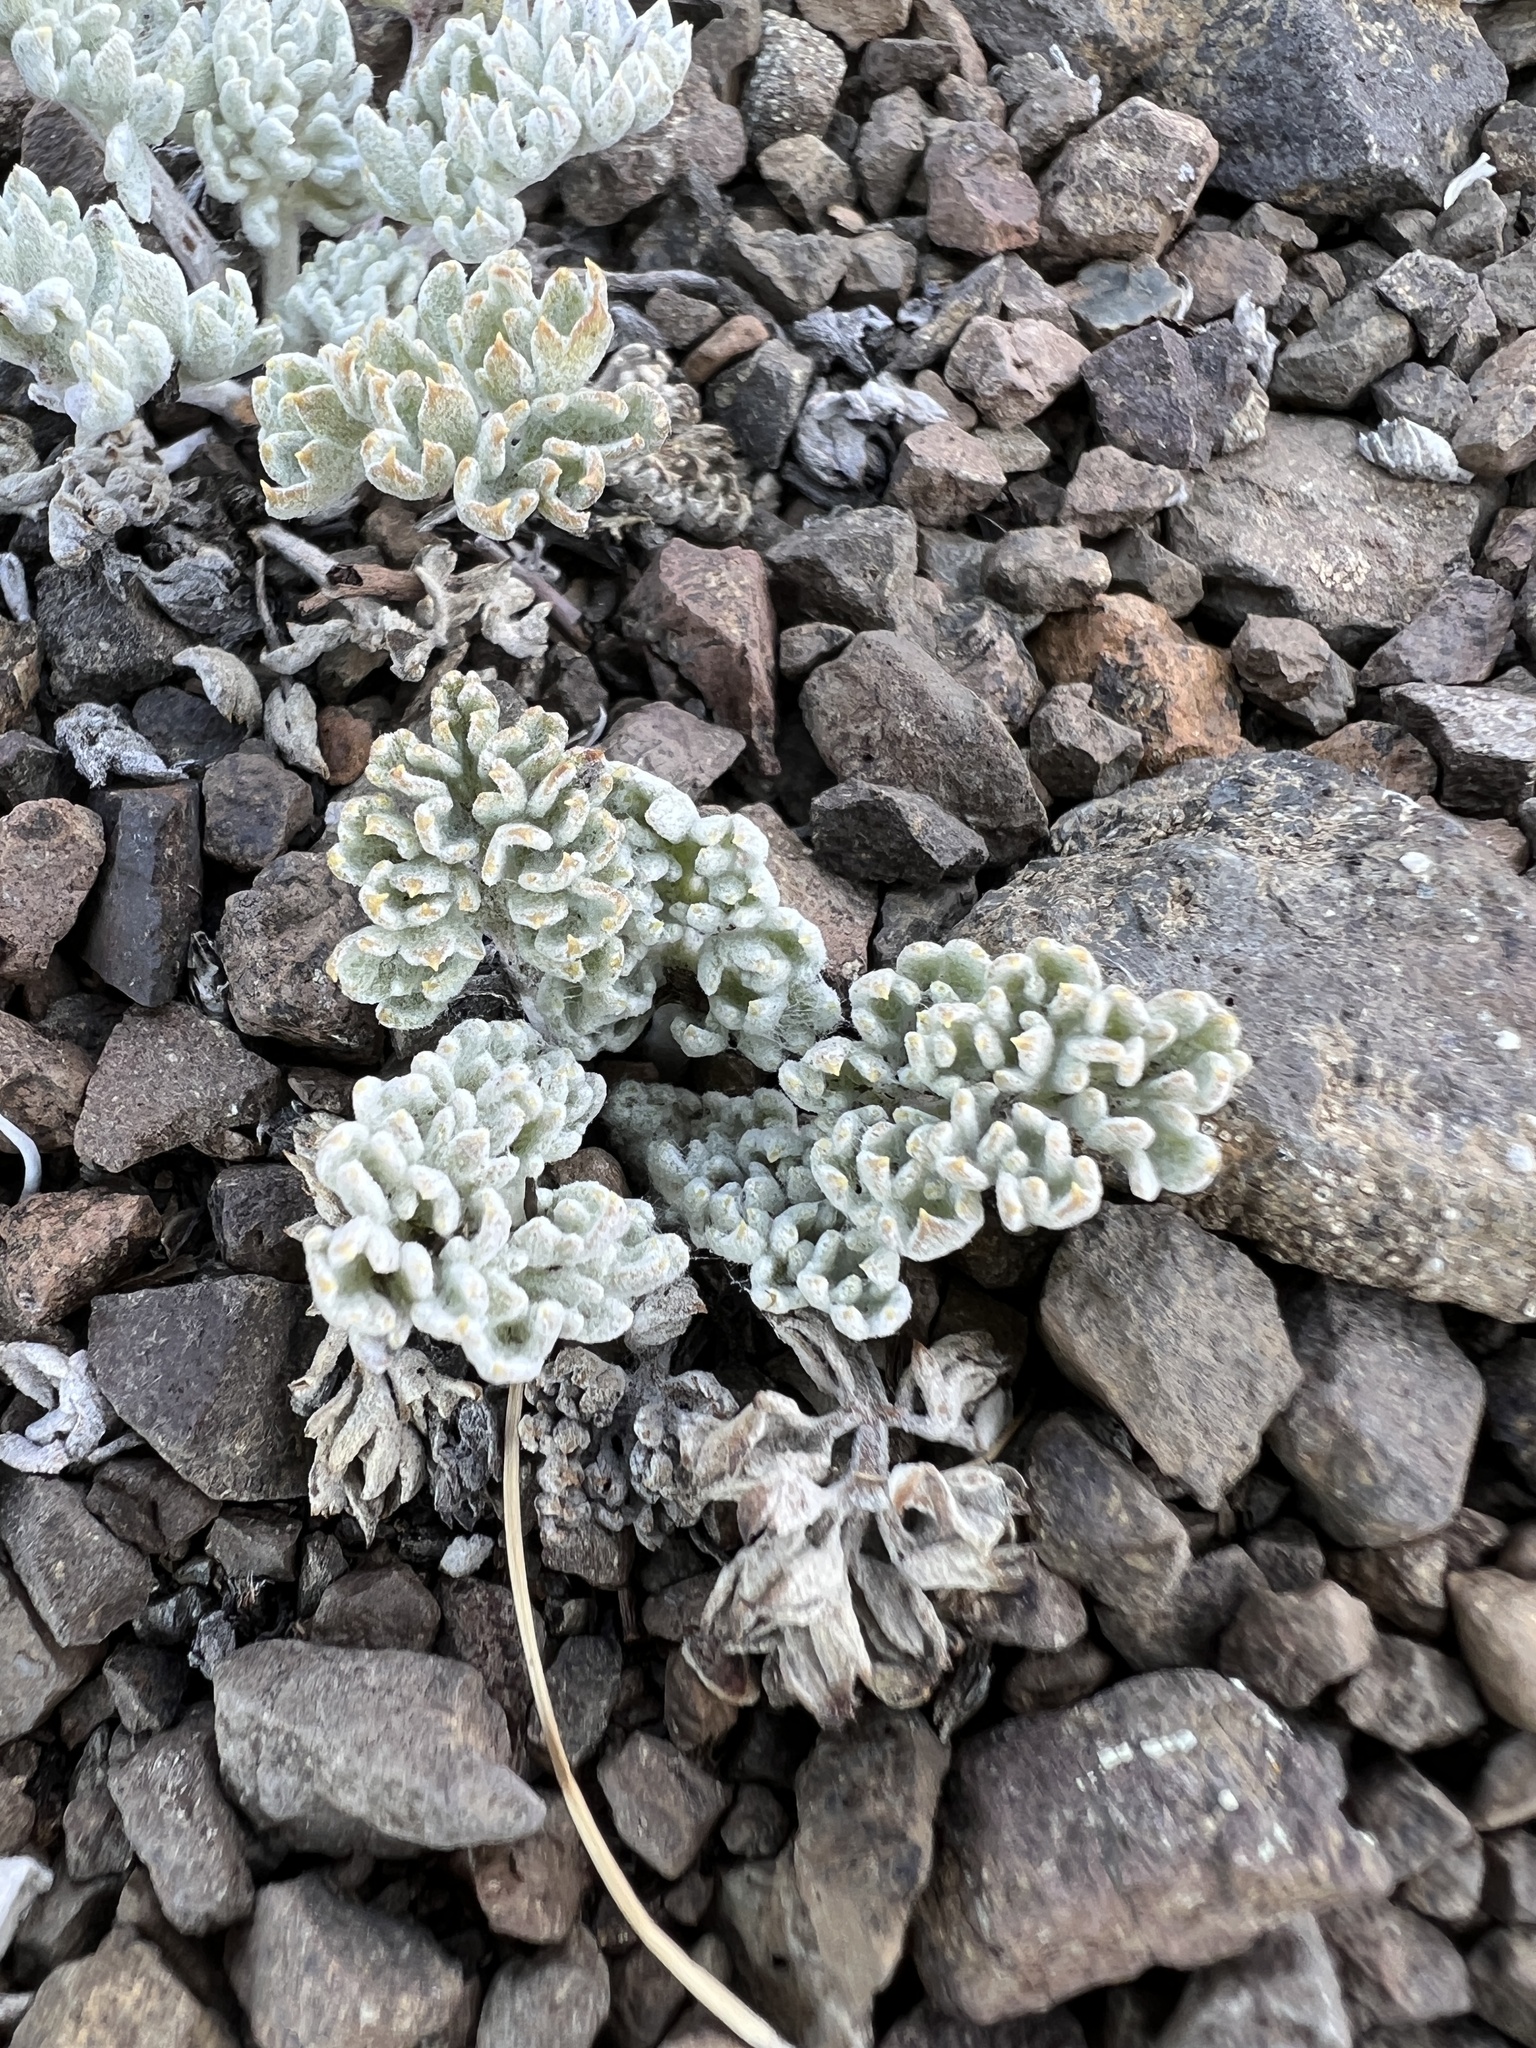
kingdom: Plantae
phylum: Tracheophyta
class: Magnoliopsida
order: Lamiales
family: Plantaginaceae
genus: Synthyris
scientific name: Synthyris lanuginosa
